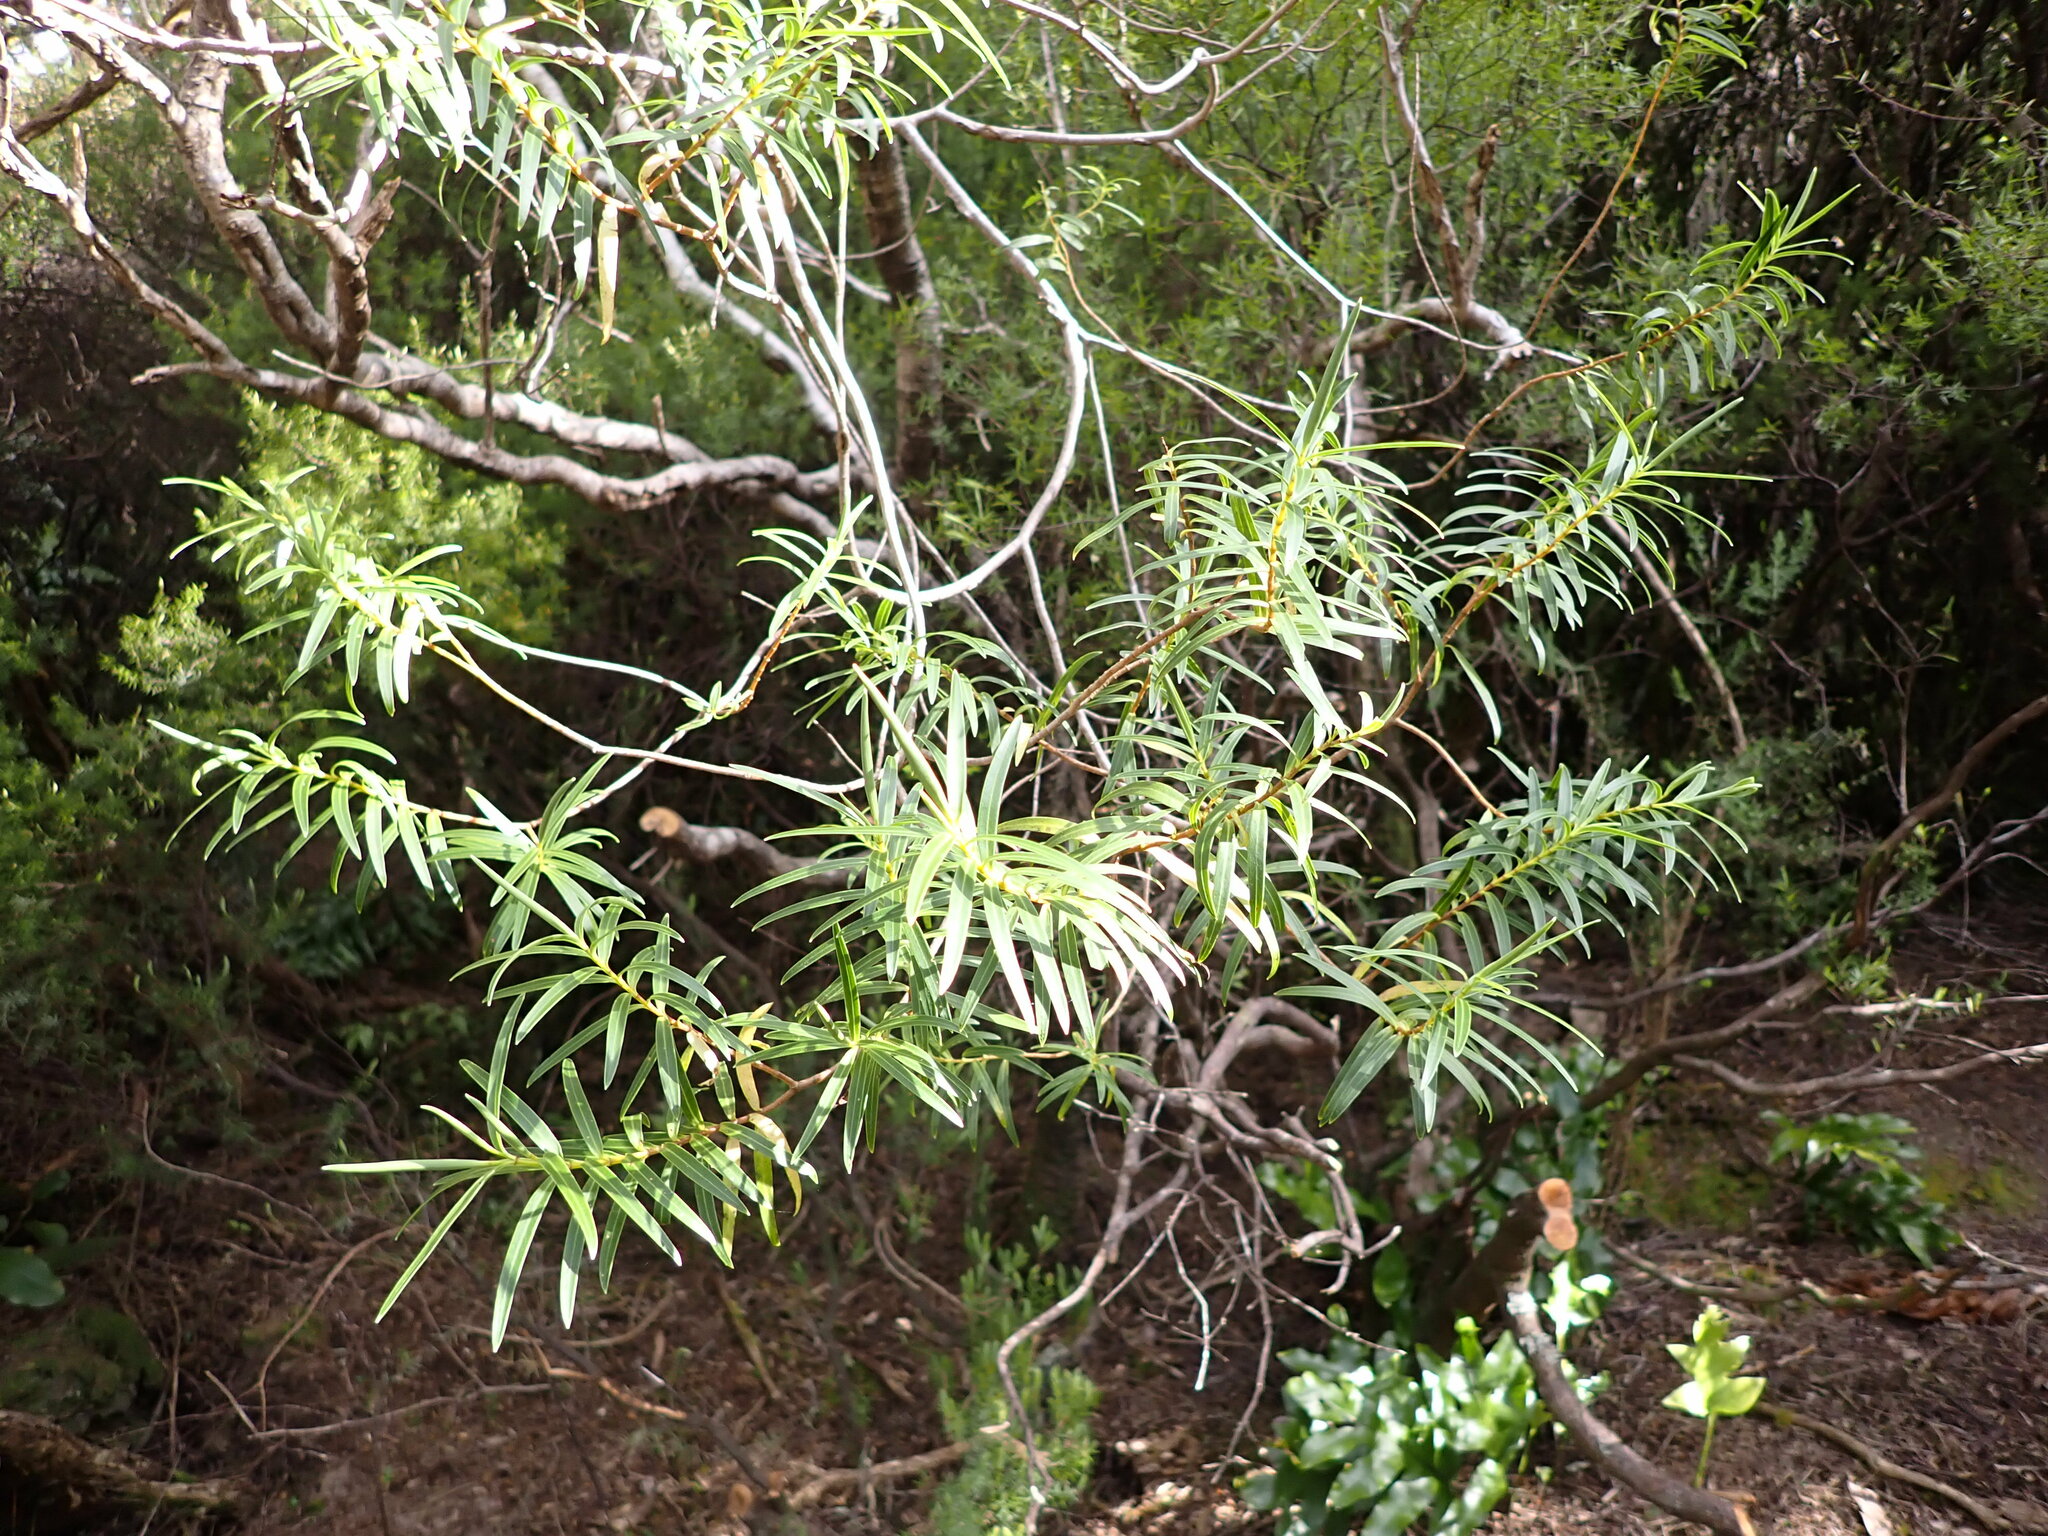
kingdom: Plantae
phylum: Tracheophyta
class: Magnoliopsida
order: Lamiales
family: Plantaginaceae
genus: Veronica
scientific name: Veronica parviflora
